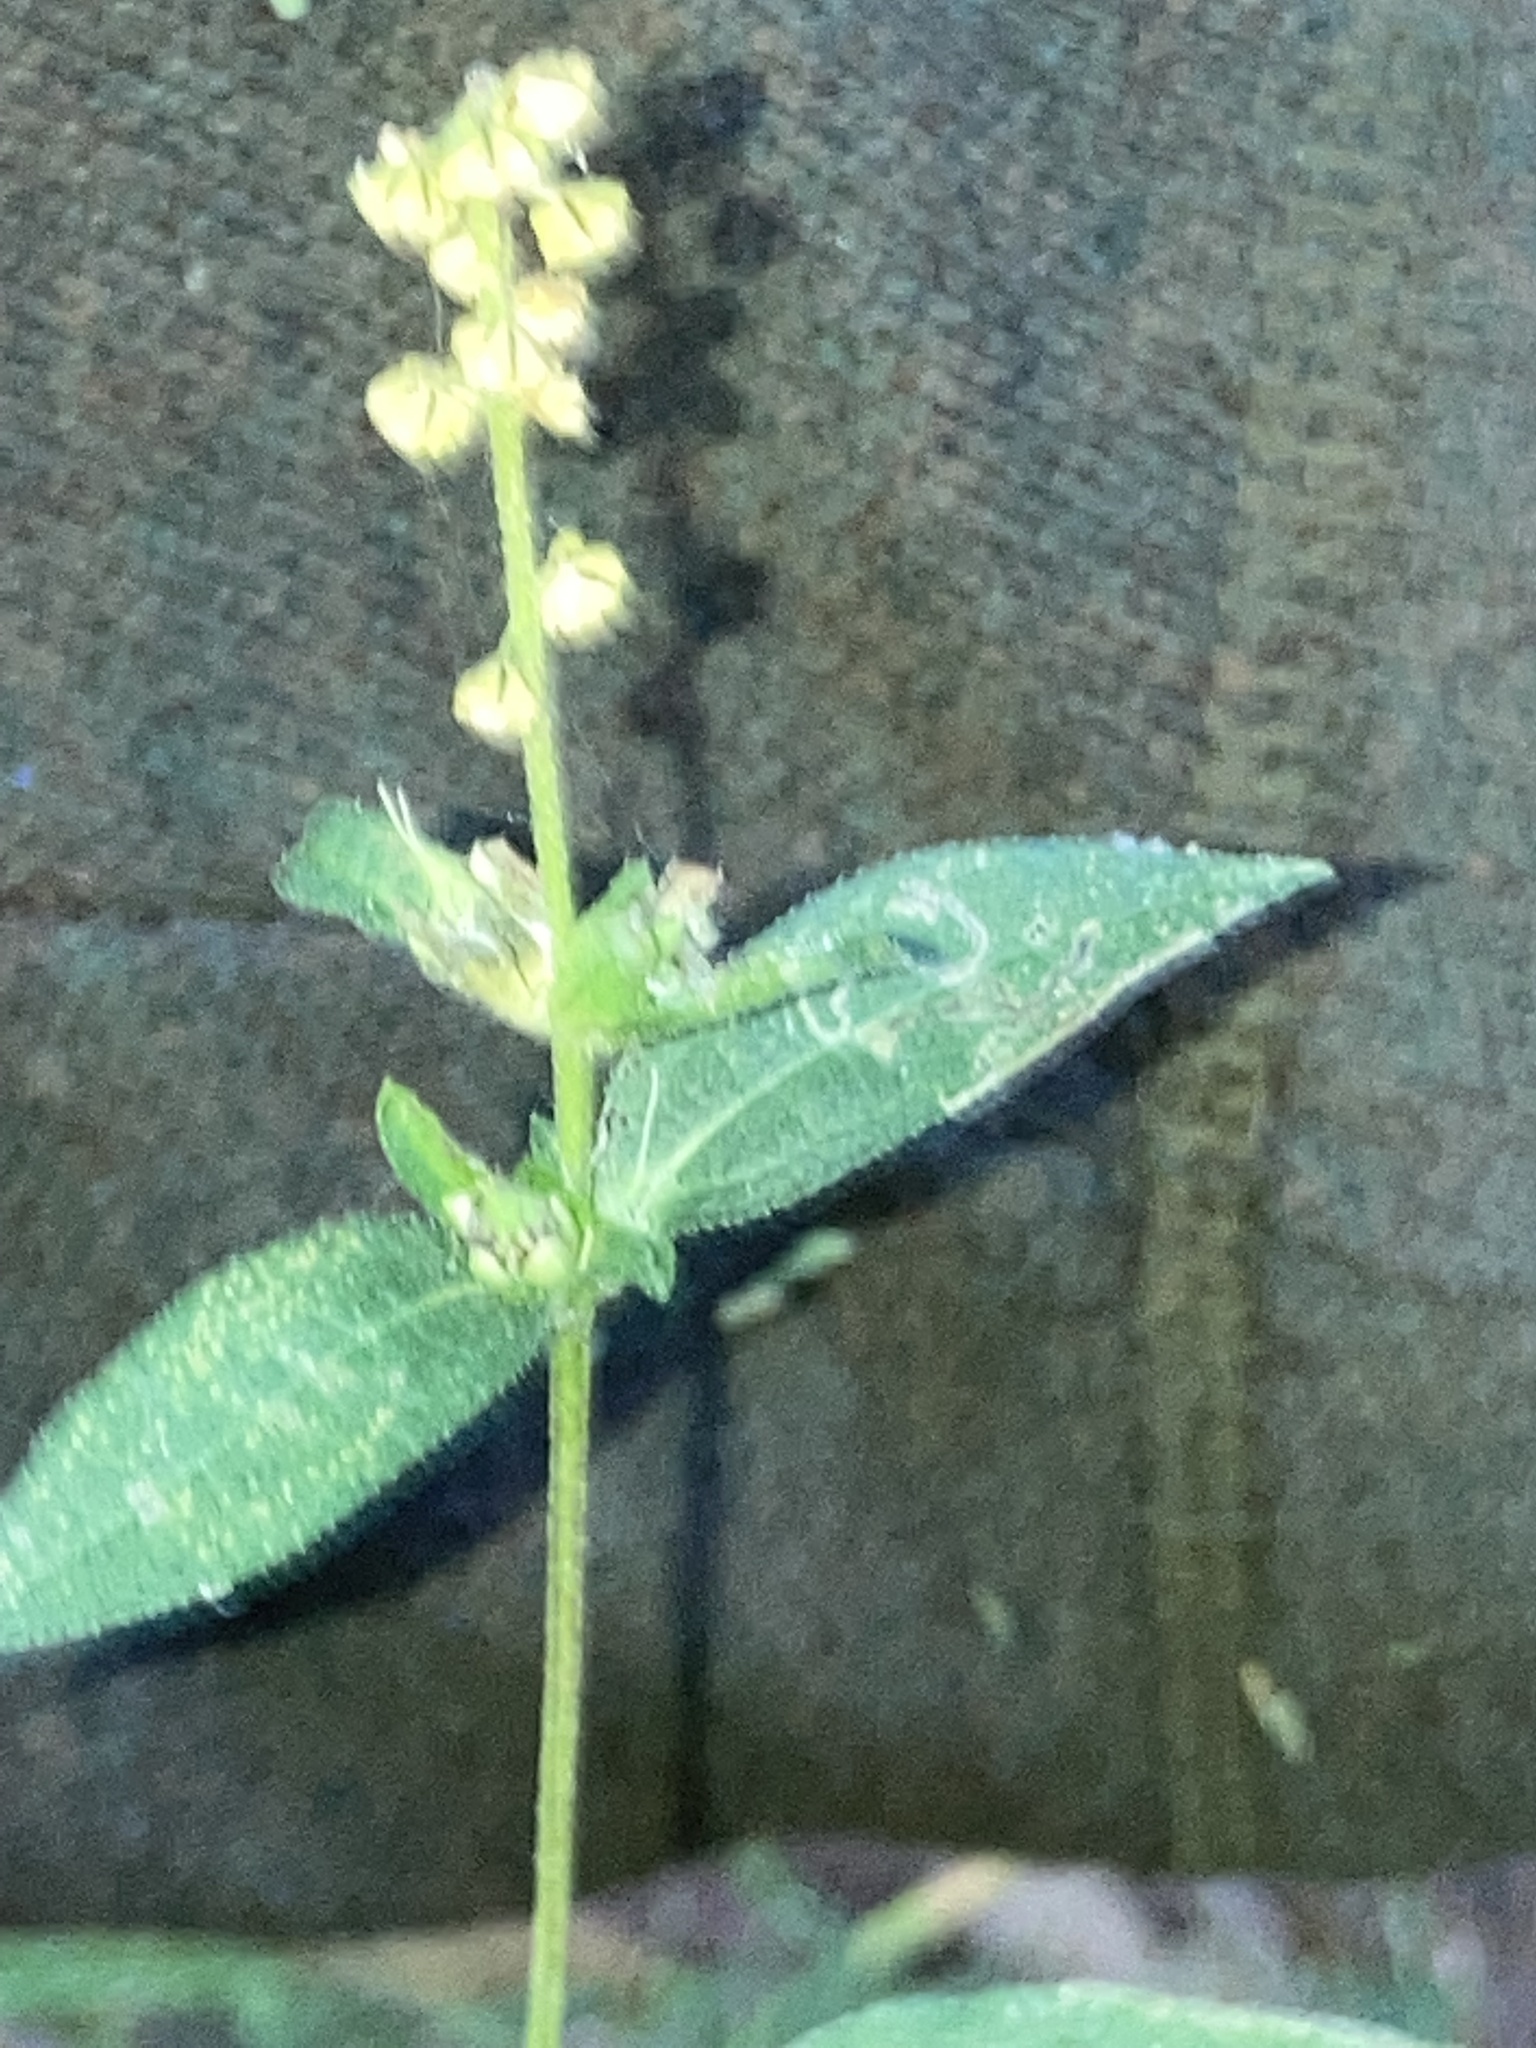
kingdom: Plantae
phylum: Tracheophyta
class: Magnoliopsida
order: Asterales
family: Asteraceae
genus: Ambrosia
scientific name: Ambrosia trifida
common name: Giant ragweed
